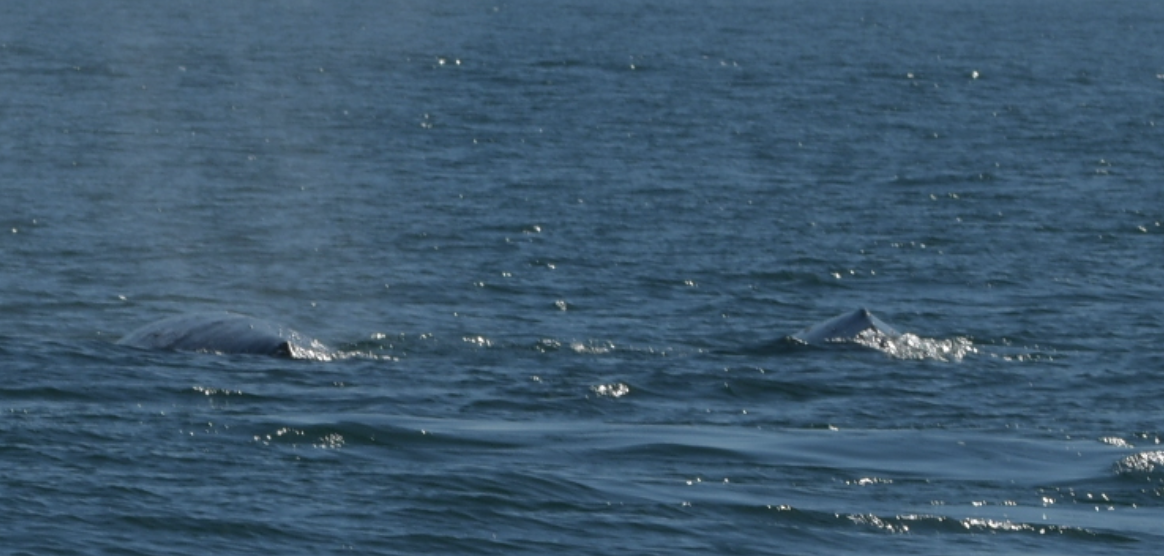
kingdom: Animalia
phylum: Chordata
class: Mammalia
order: Cetacea
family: Eschrichtiidae
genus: Eschrichtius
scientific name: Eschrichtius robustus
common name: Gray whale
